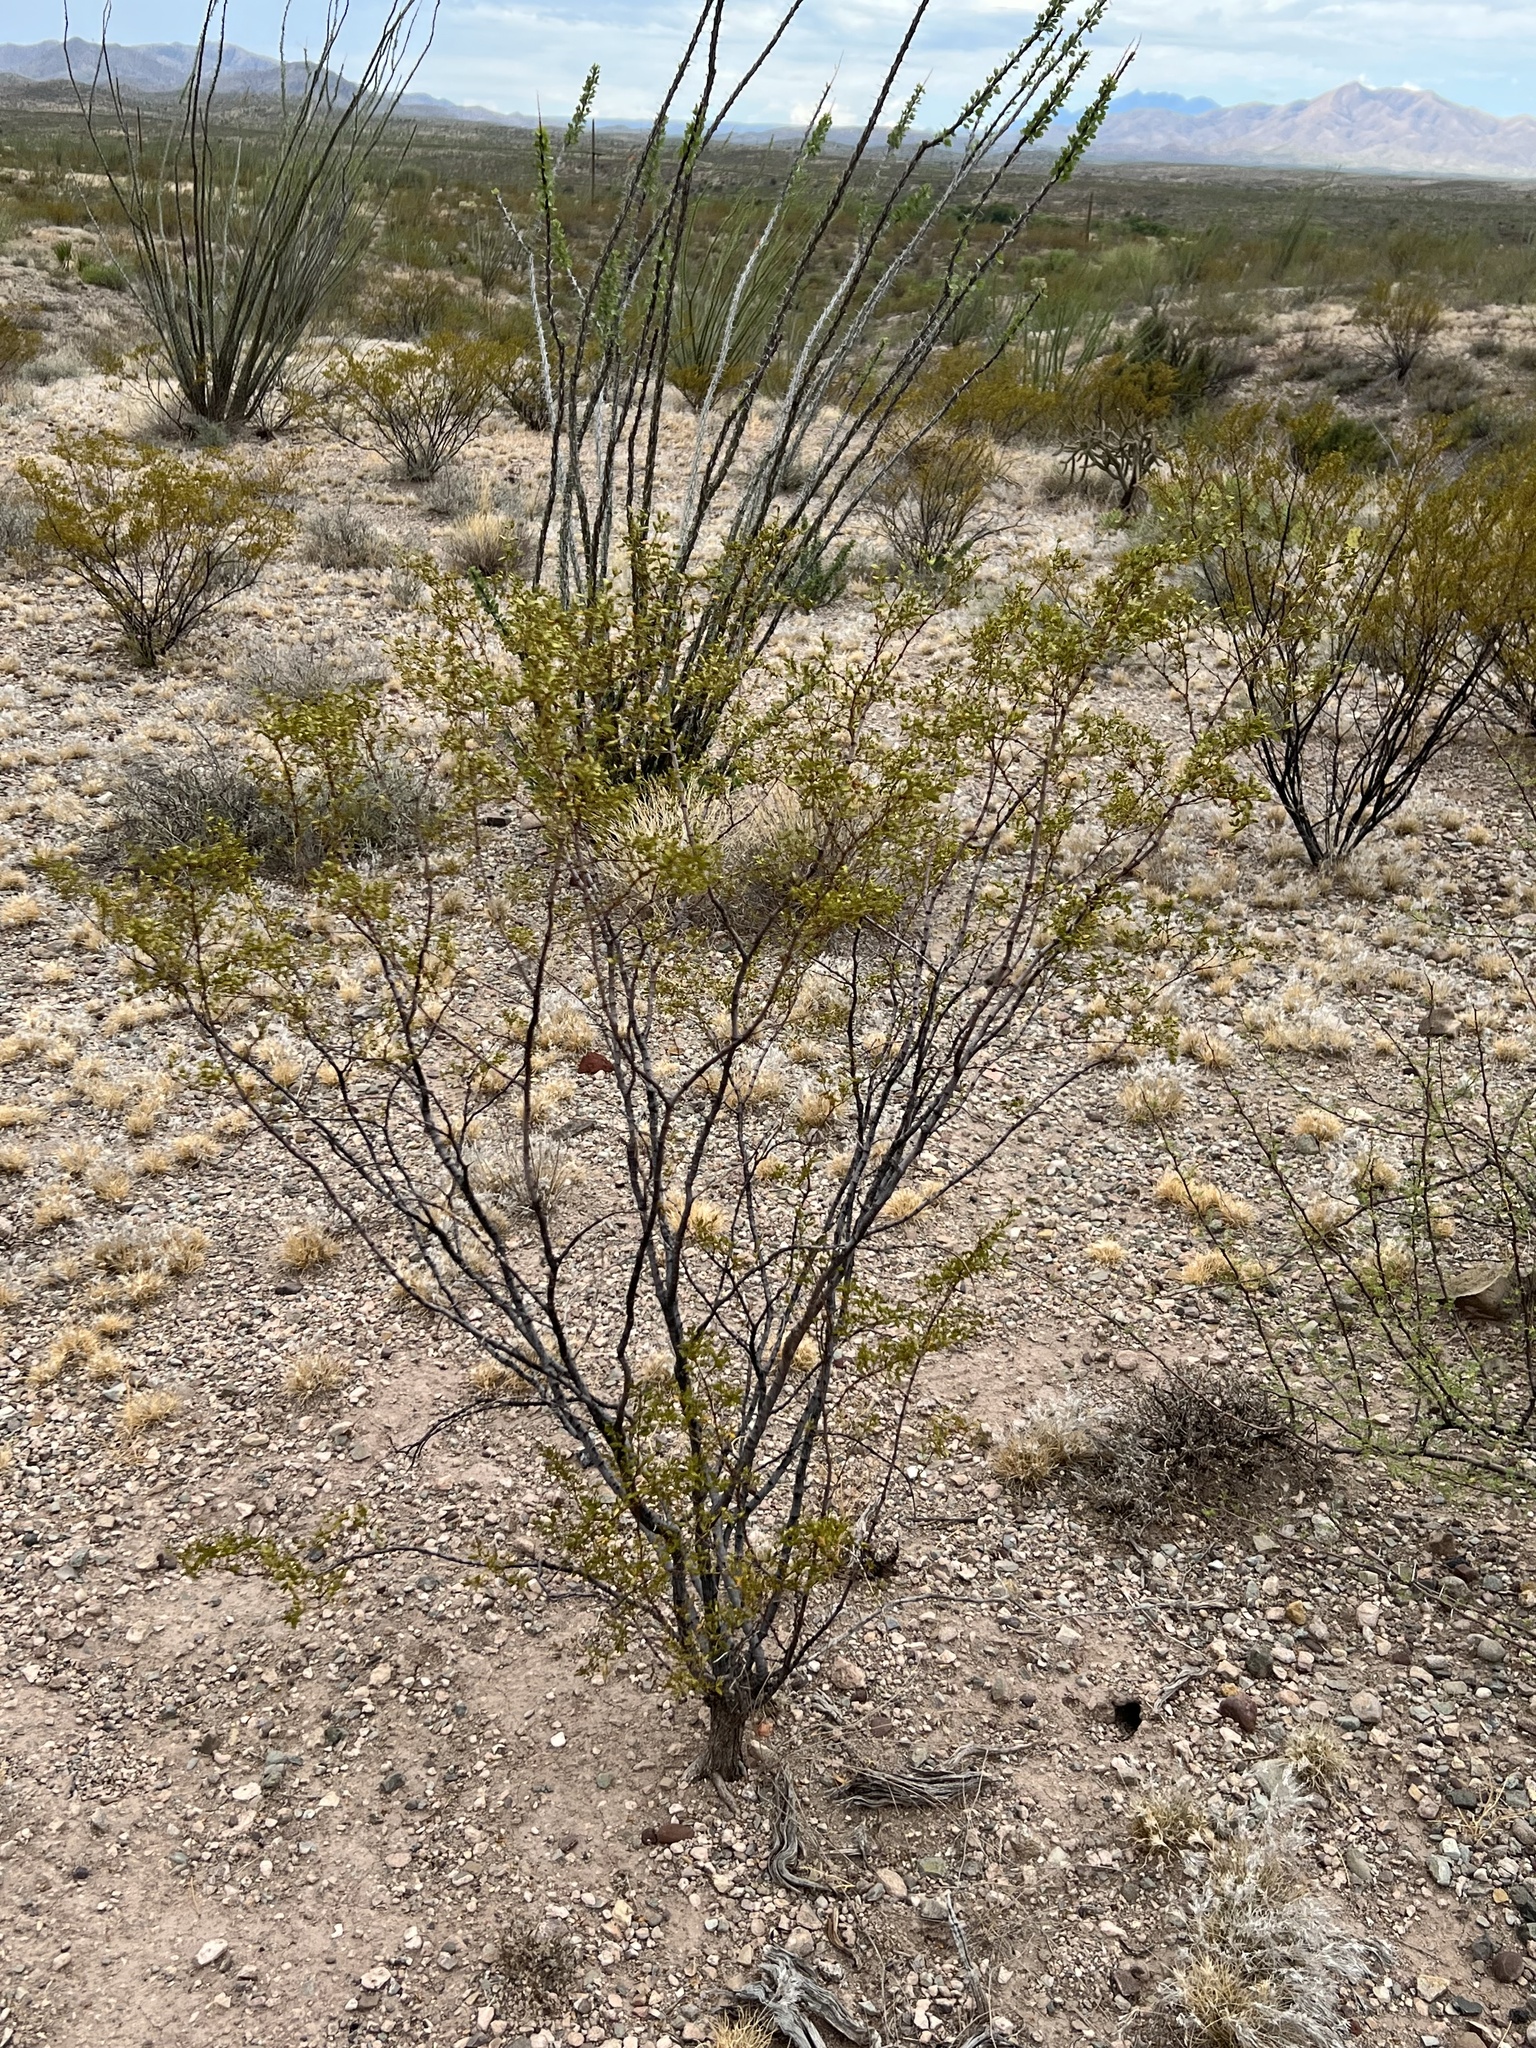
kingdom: Plantae
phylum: Tracheophyta
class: Magnoliopsida
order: Zygophyllales
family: Zygophyllaceae
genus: Larrea
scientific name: Larrea tridentata
